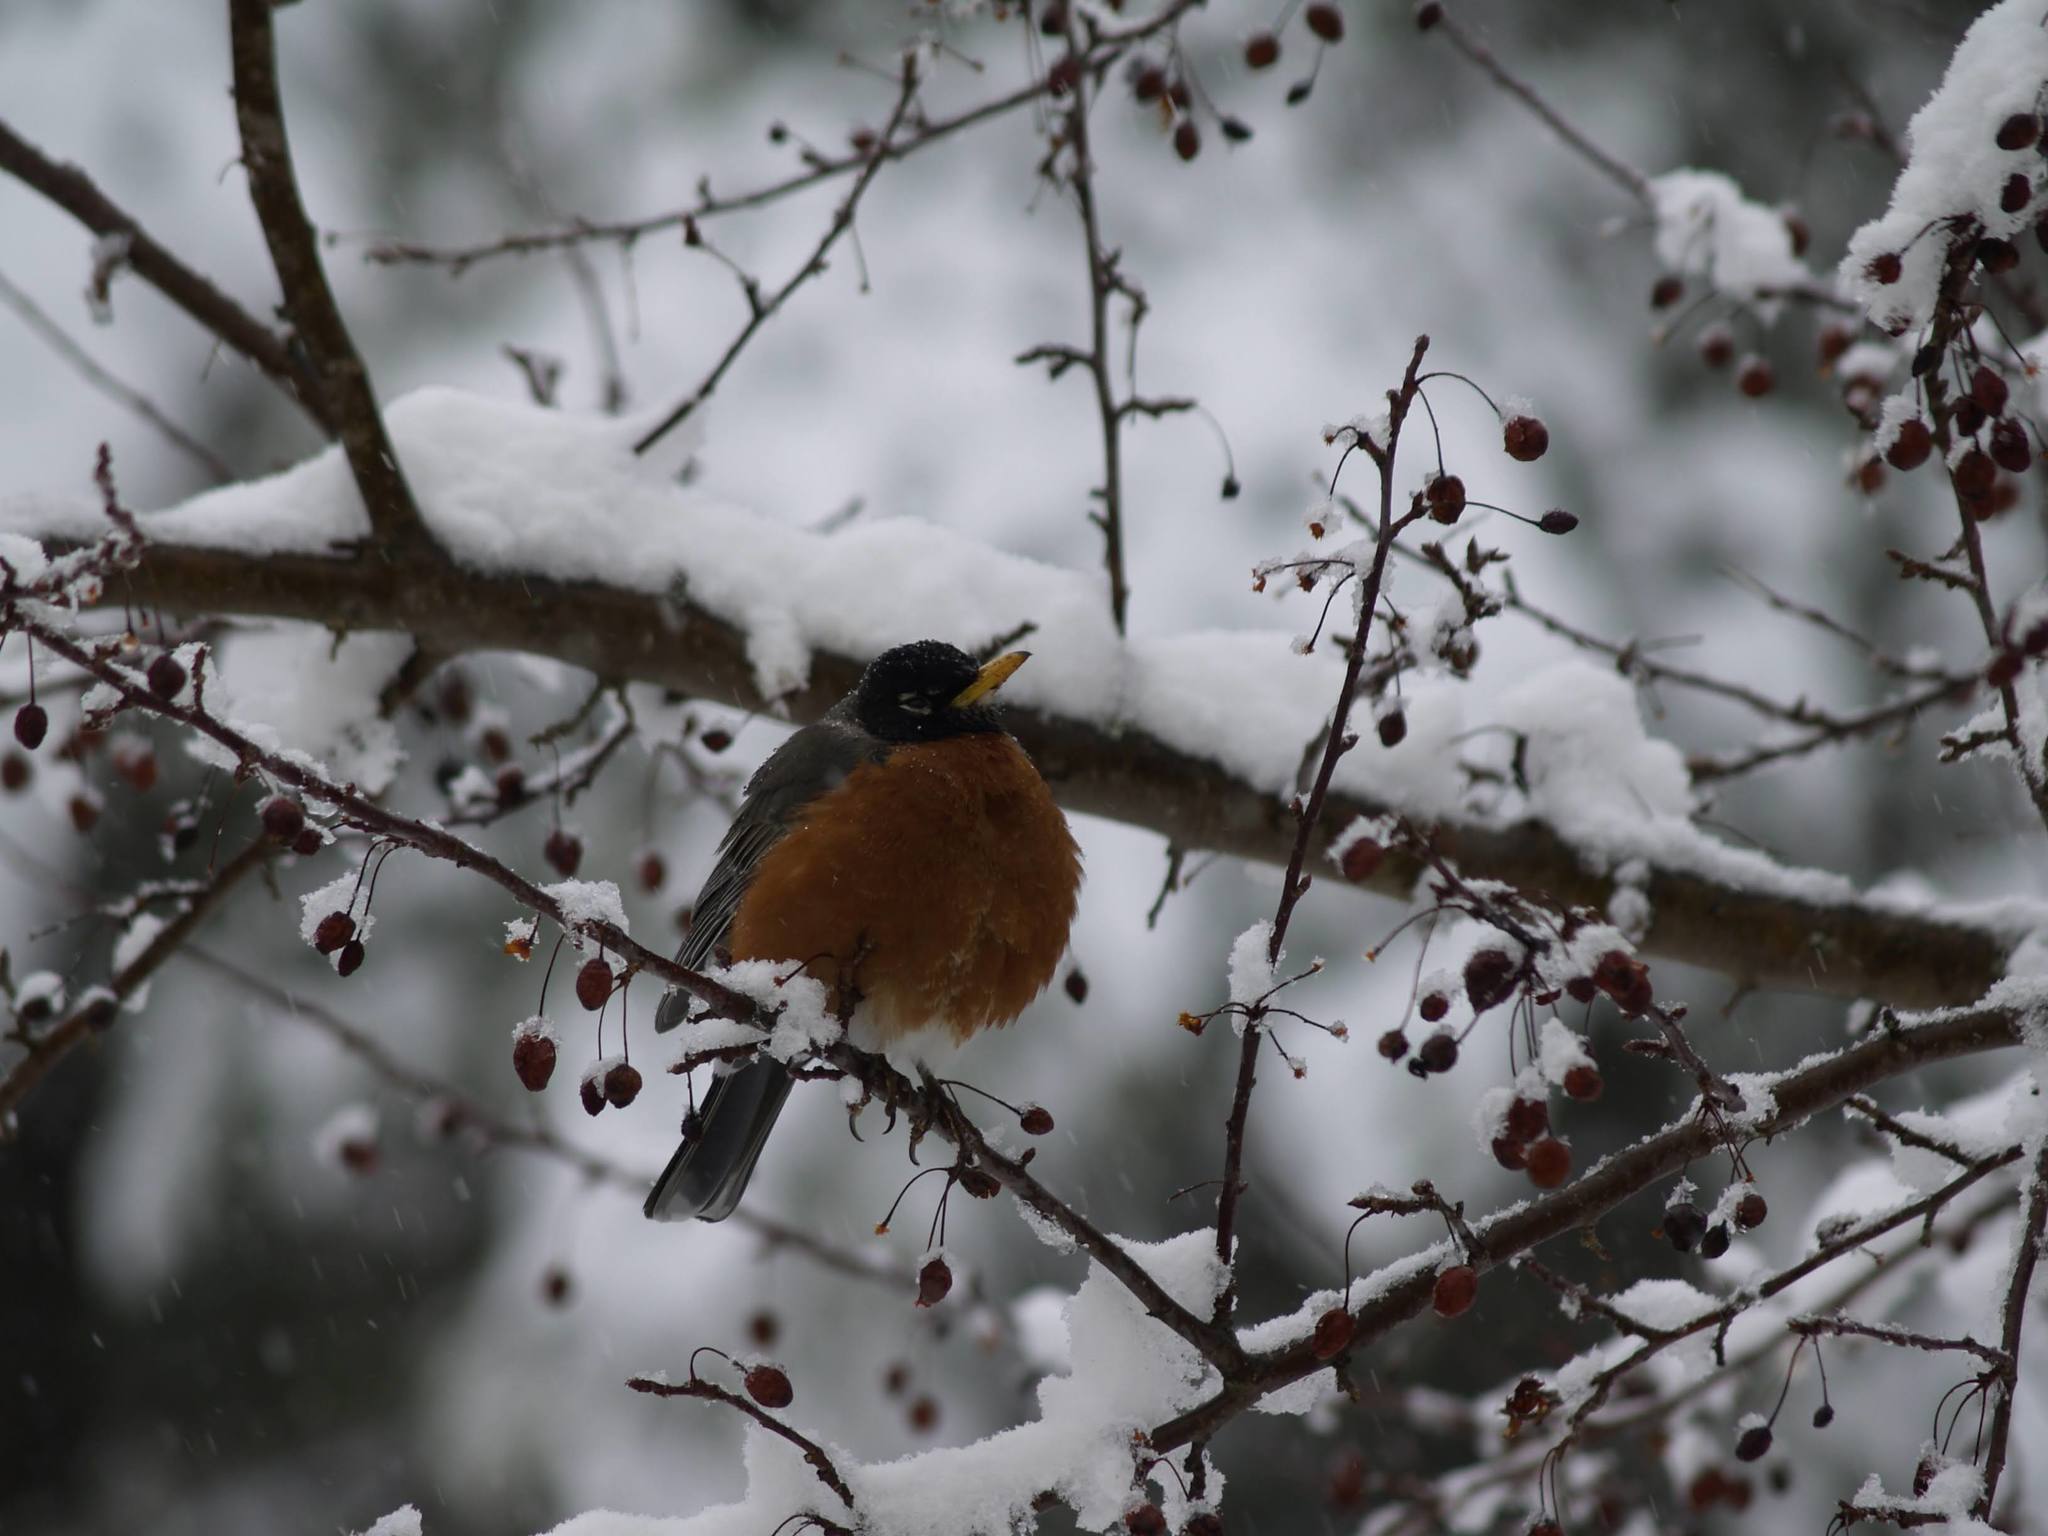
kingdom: Animalia
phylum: Chordata
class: Aves
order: Passeriformes
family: Turdidae
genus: Turdus
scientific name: Turdus migratorius
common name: American robin
